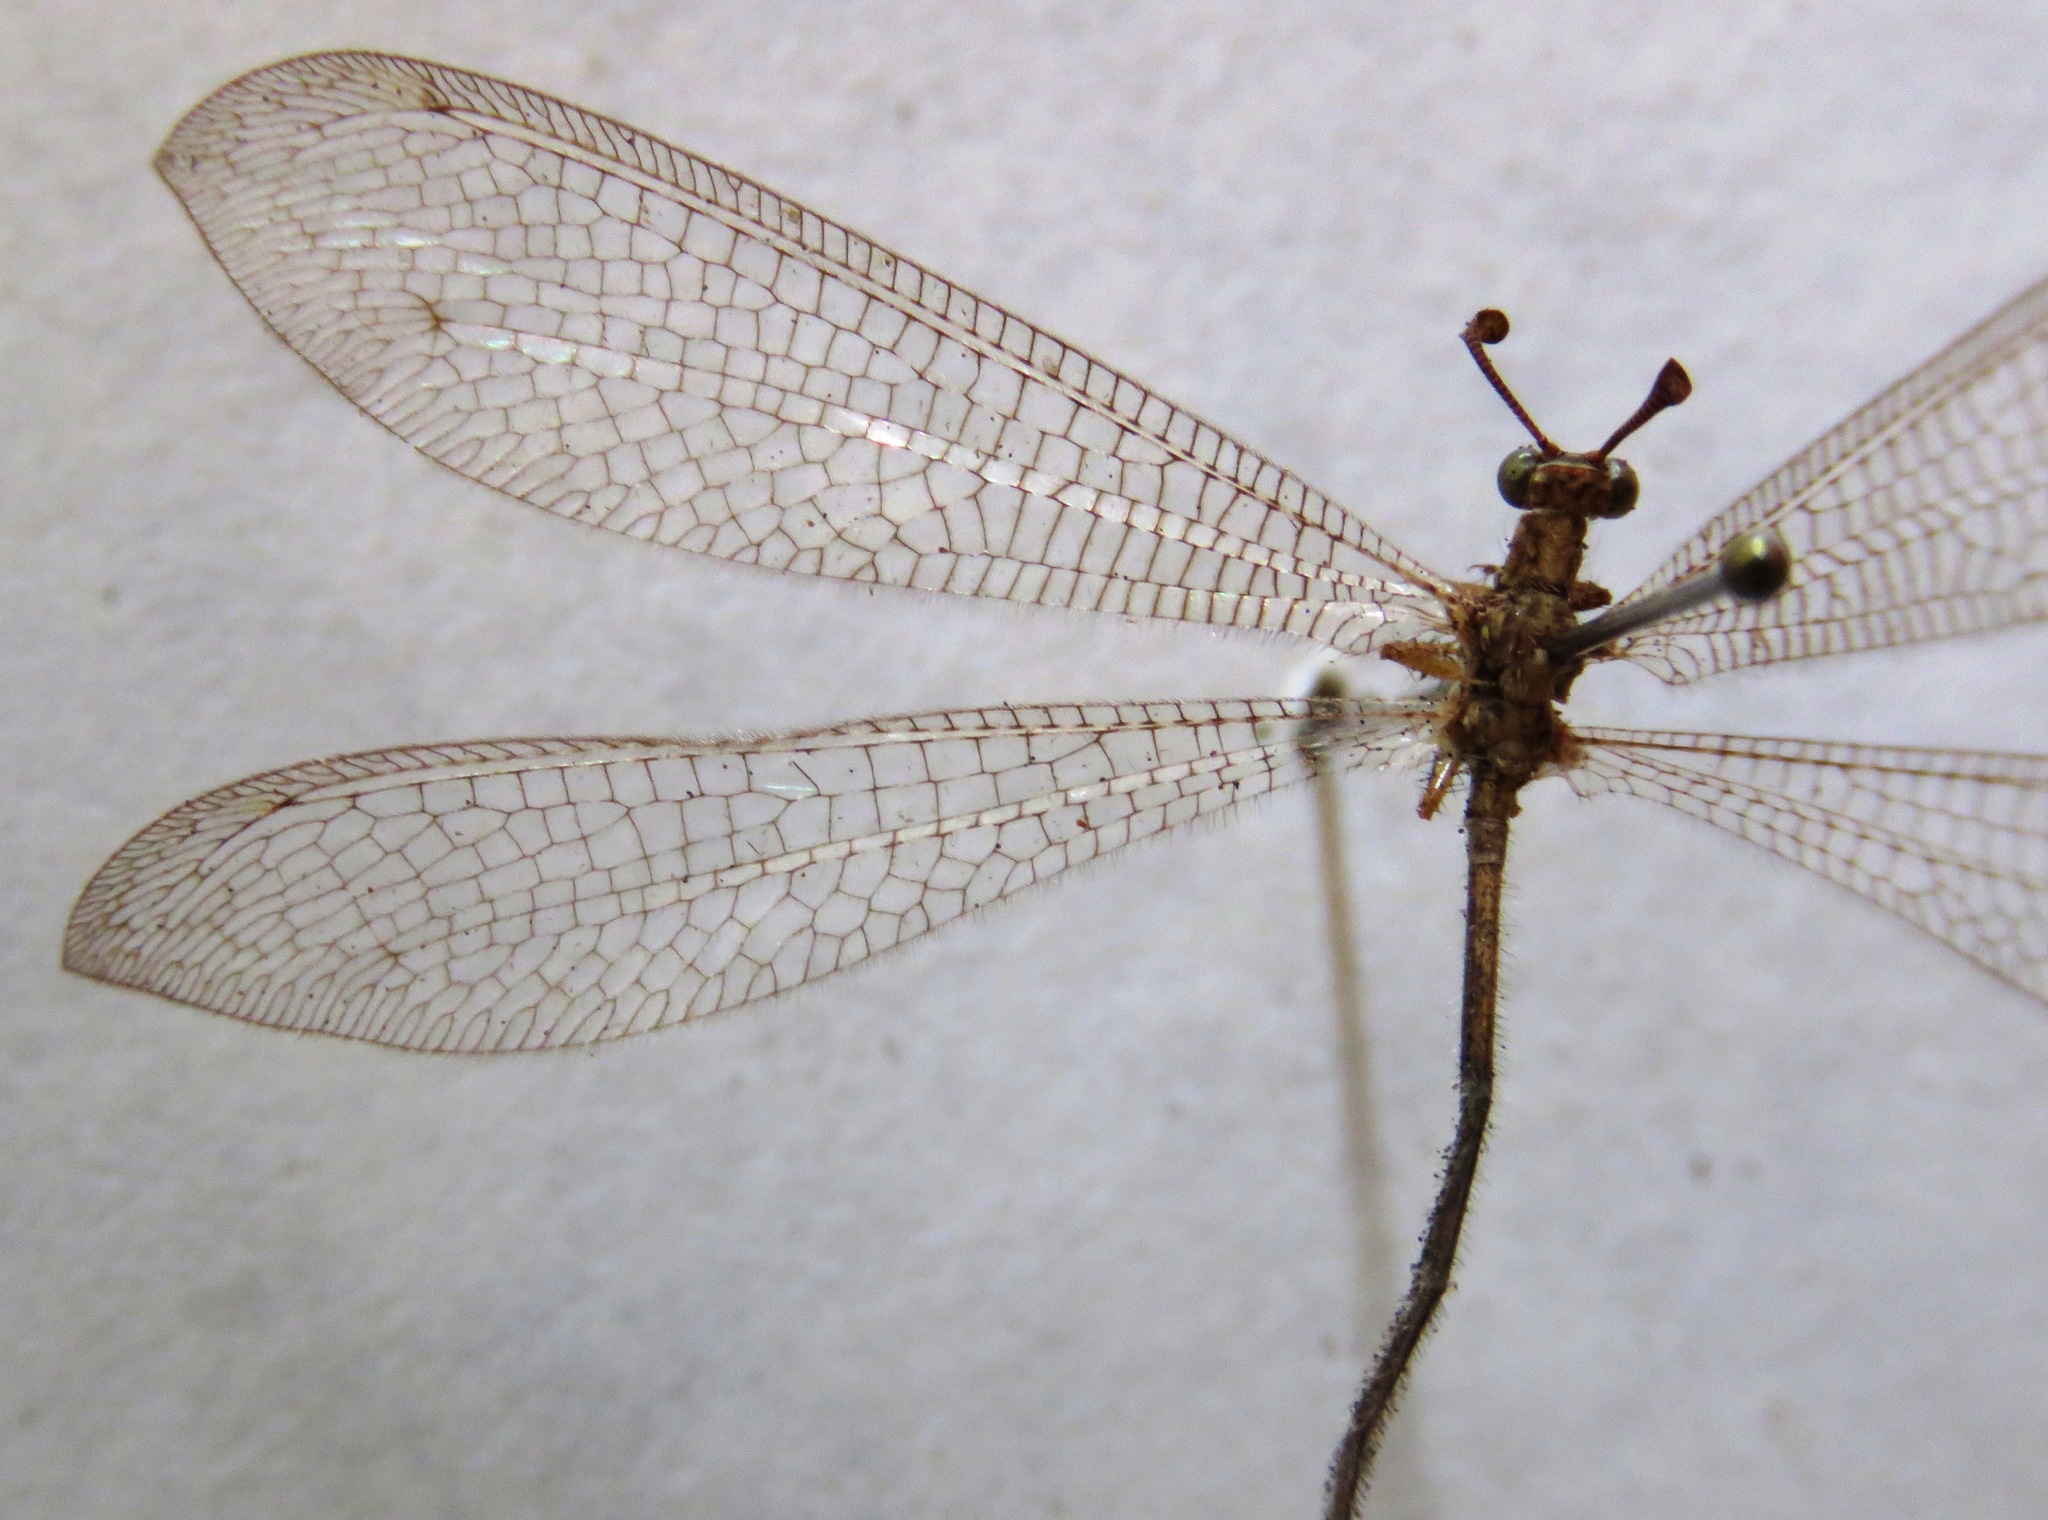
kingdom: Animalia
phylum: Arthropoda
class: Insecta
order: Neuroptera
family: Myrmeleontidae
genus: Dejuna
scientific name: Dejuna fenestrata
